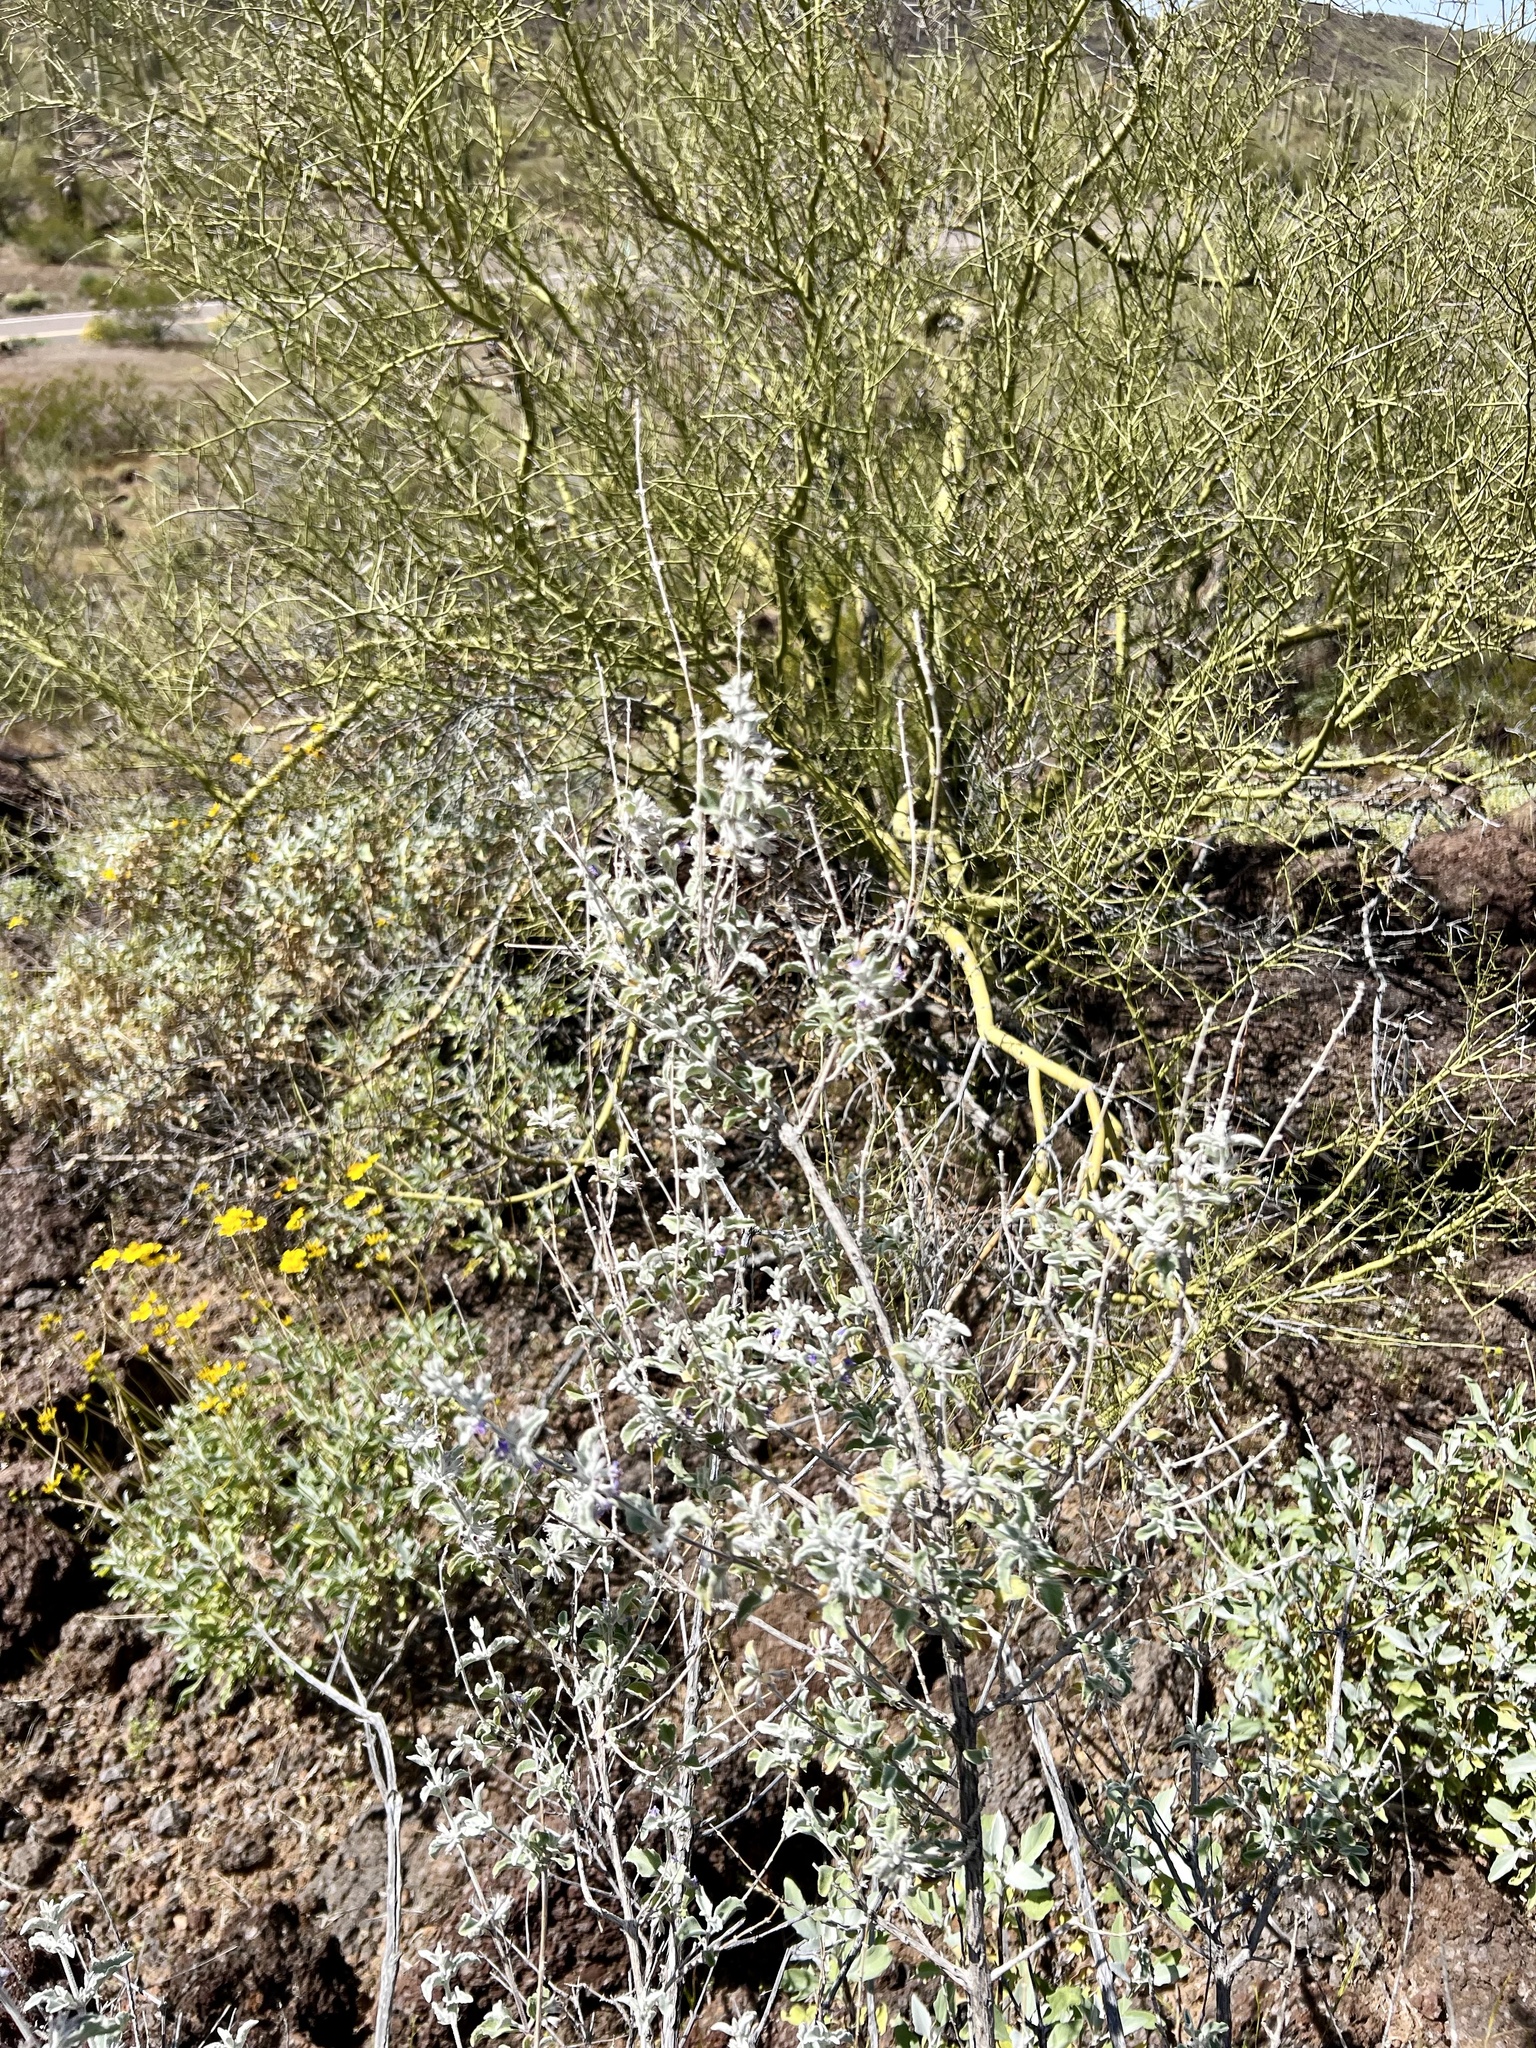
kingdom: Plantae
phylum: Tracheophyta
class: Magnoliopsida
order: Lamiales
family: Lamiaceae
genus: Condea
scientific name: Condea emoryi
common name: Chia
